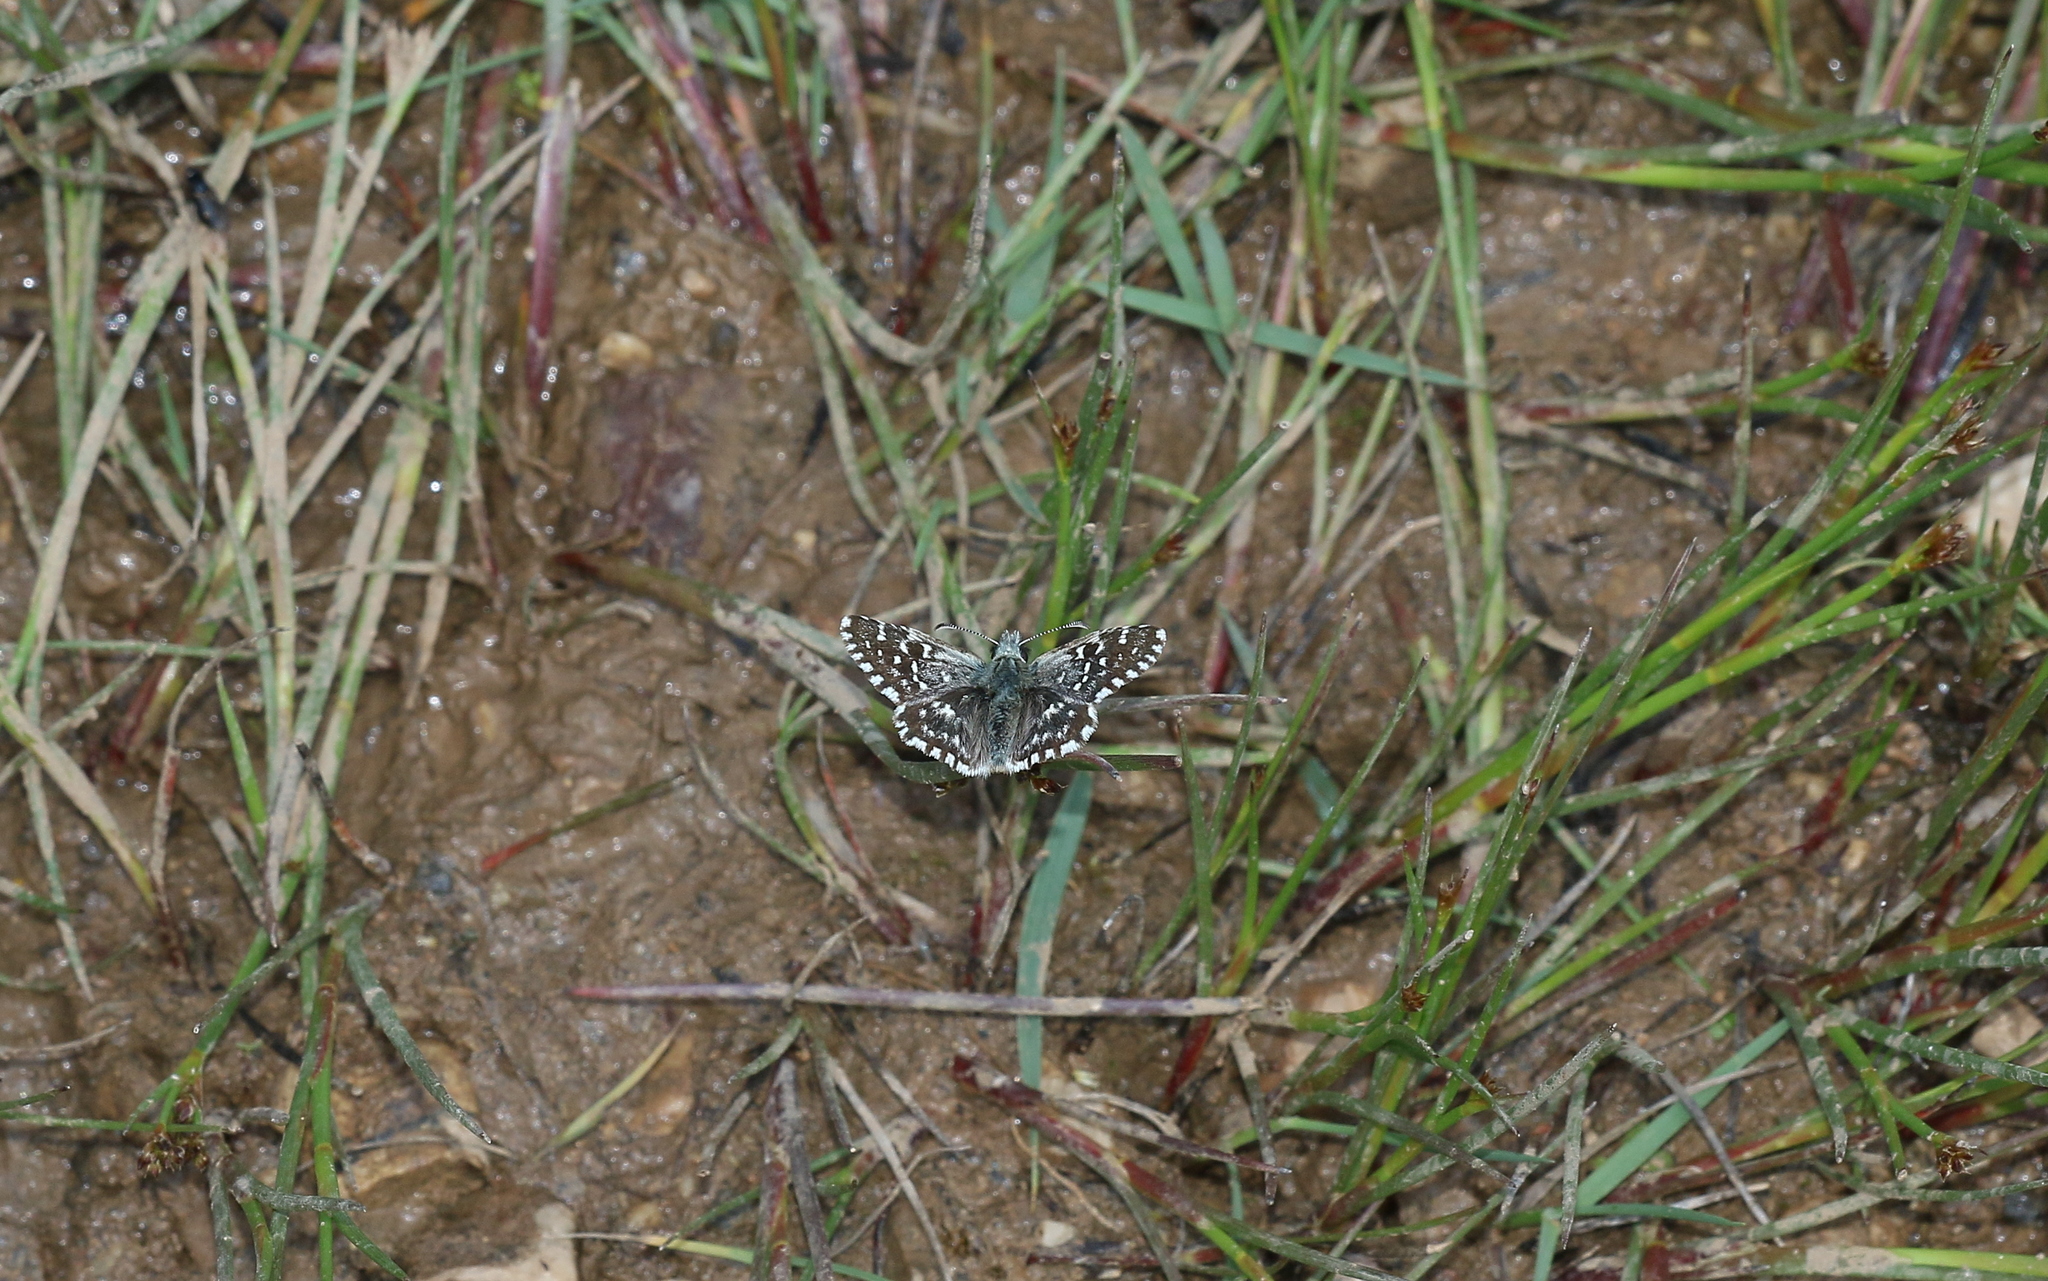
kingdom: Animalia
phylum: Arthropoda
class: Insecta
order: Lepidoptera
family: Hesperiidae
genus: Pyrgus
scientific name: Pyrgus malvae
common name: Grizzled skipper
